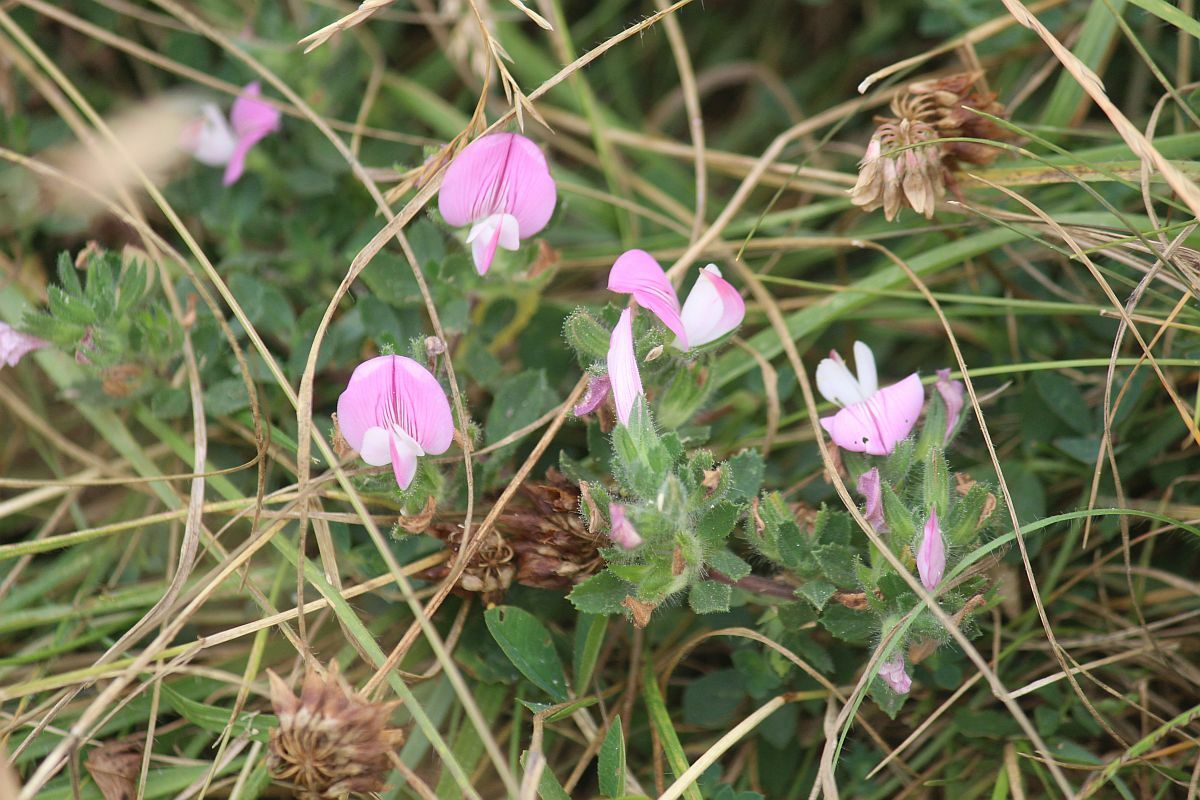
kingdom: Plantae
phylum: Tracheophyta
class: Magnoliopsida
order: Fabales
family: Fabaceae
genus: Ononis
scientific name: Ononis spinosa
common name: Spiny restharrow
